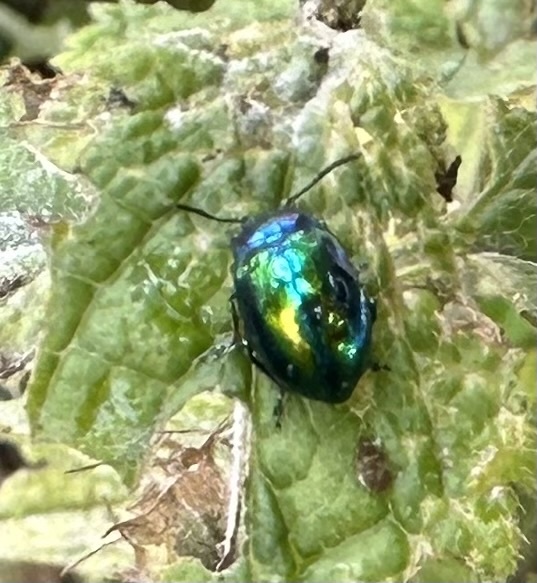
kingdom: Animalia
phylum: Arthropoda
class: Insecta
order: Coleoptera
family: Chrysomelidae
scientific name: Chrysomelidae
